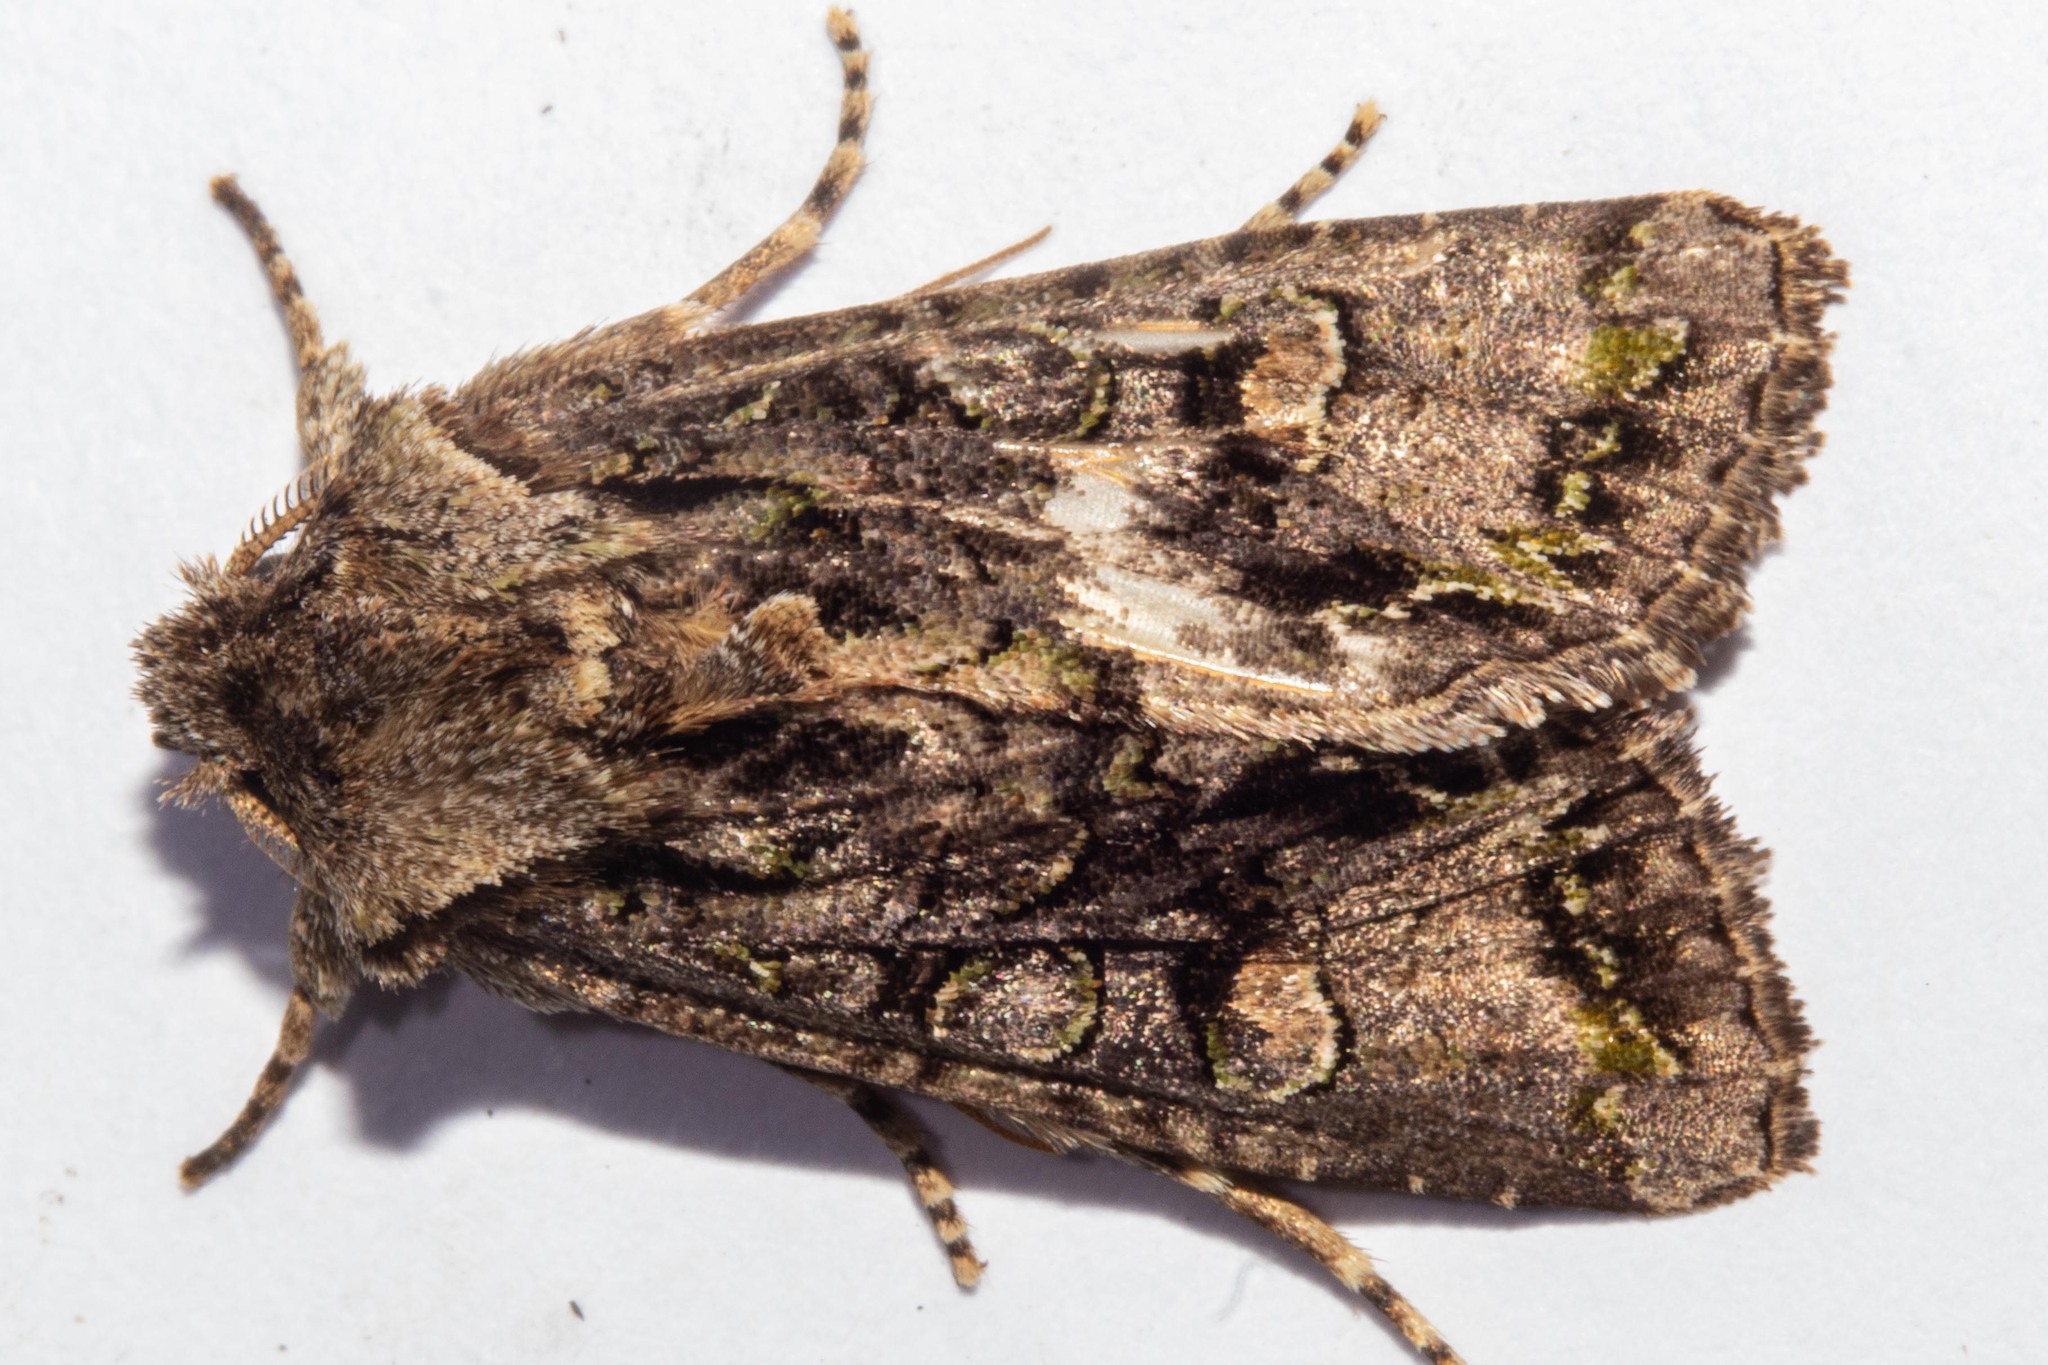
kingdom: Animalia
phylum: Arthropoda
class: Insecta
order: Lepidoptera
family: Noctuidae
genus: Ichneutica
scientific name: Ichneutica insignis
